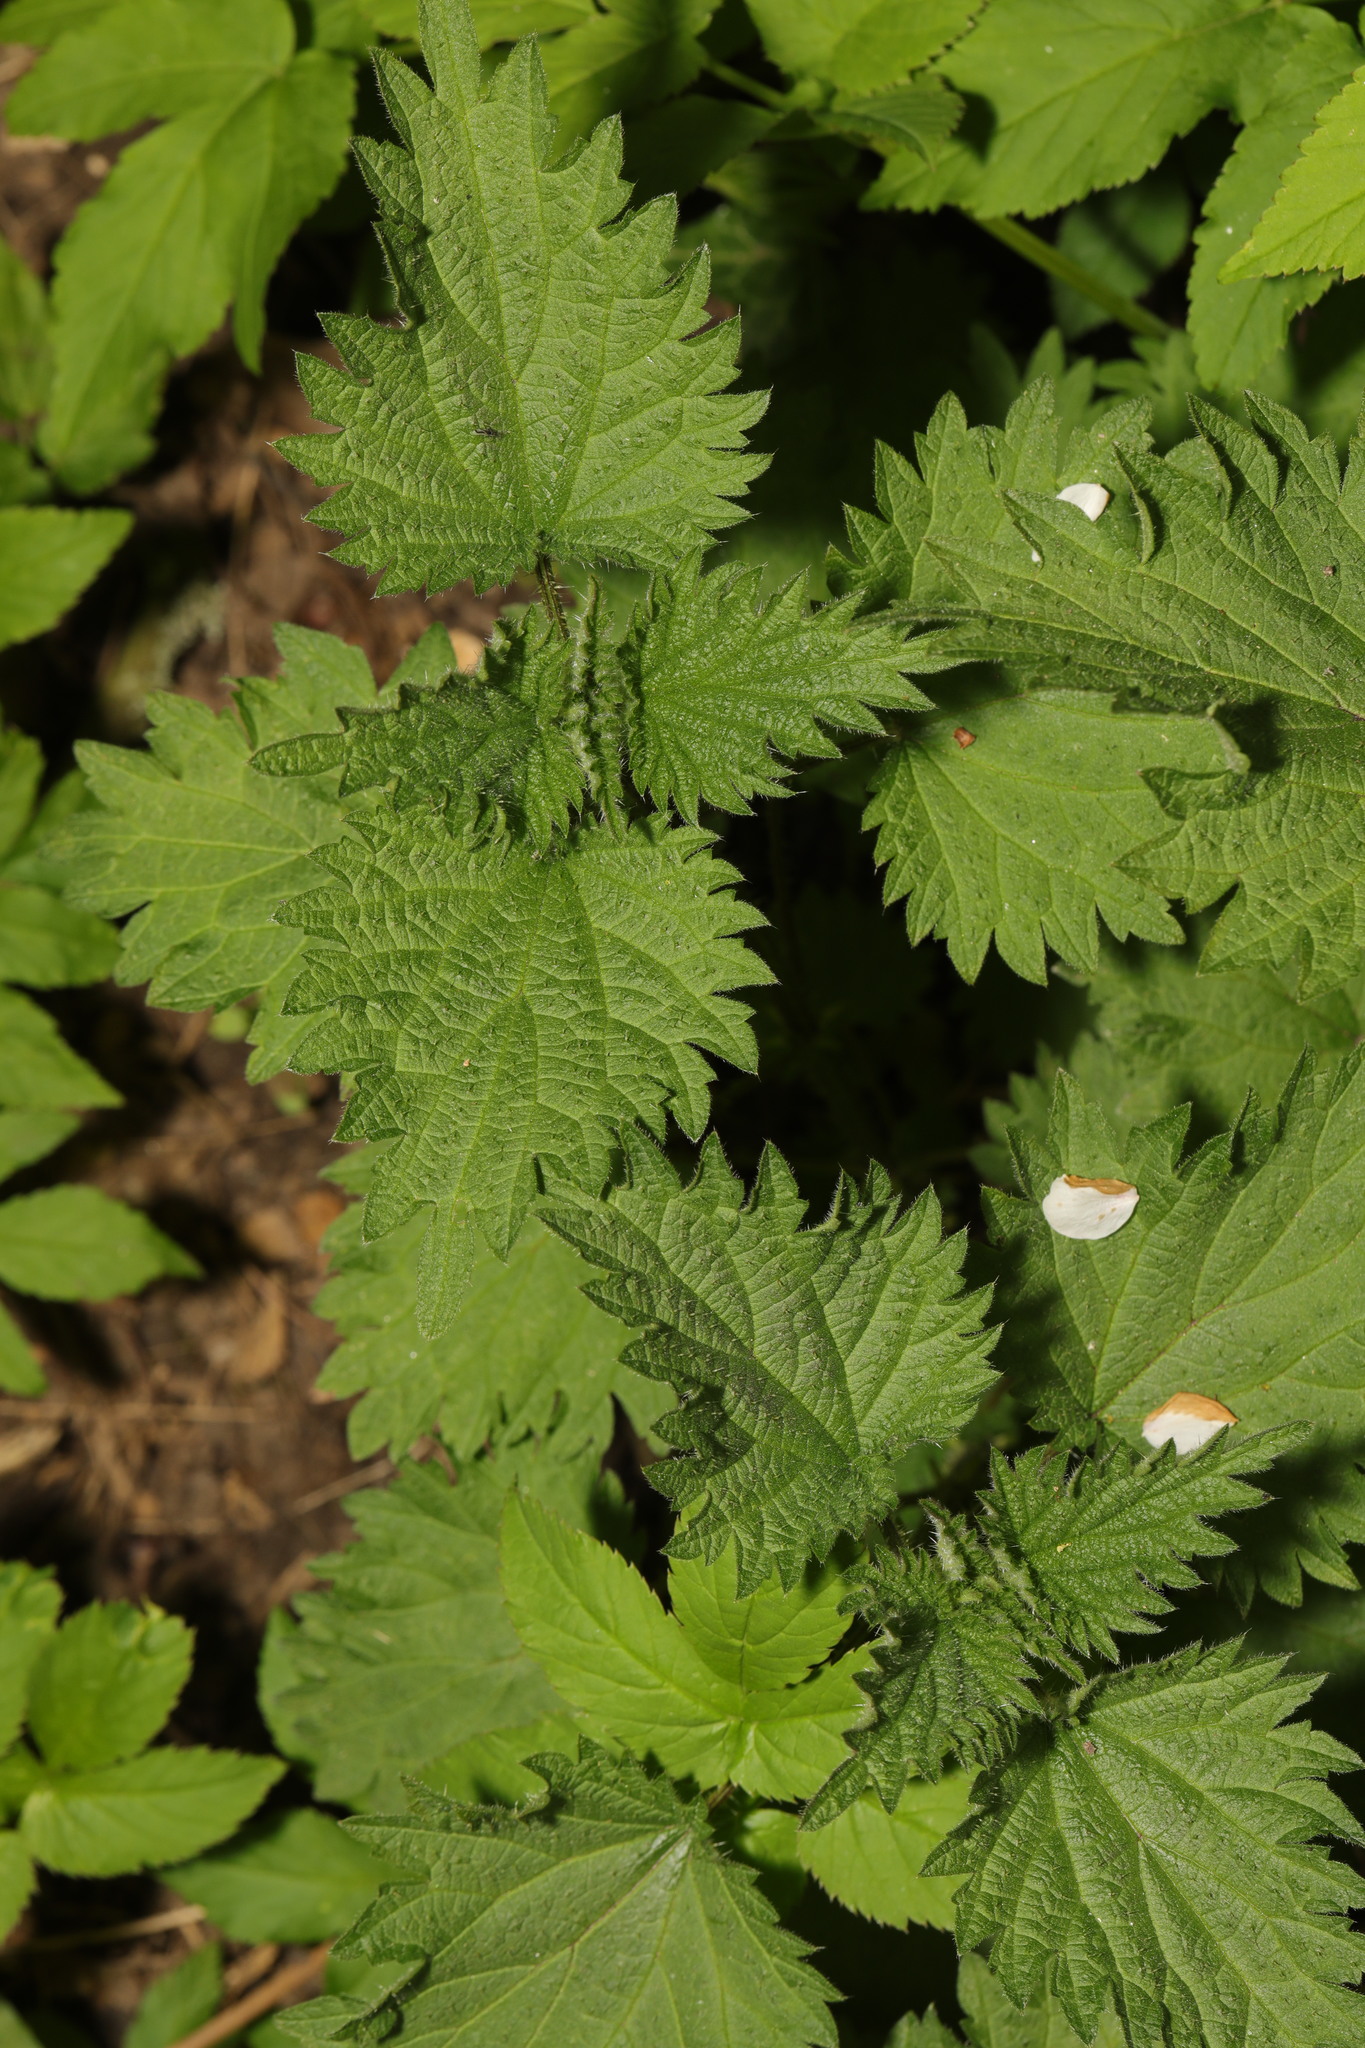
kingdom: Plantae
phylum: Tracheophyta
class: Magnoliopsida
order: Rosales
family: Urticaceae
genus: Urtica
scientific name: Urtica dioica
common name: Common nettle
